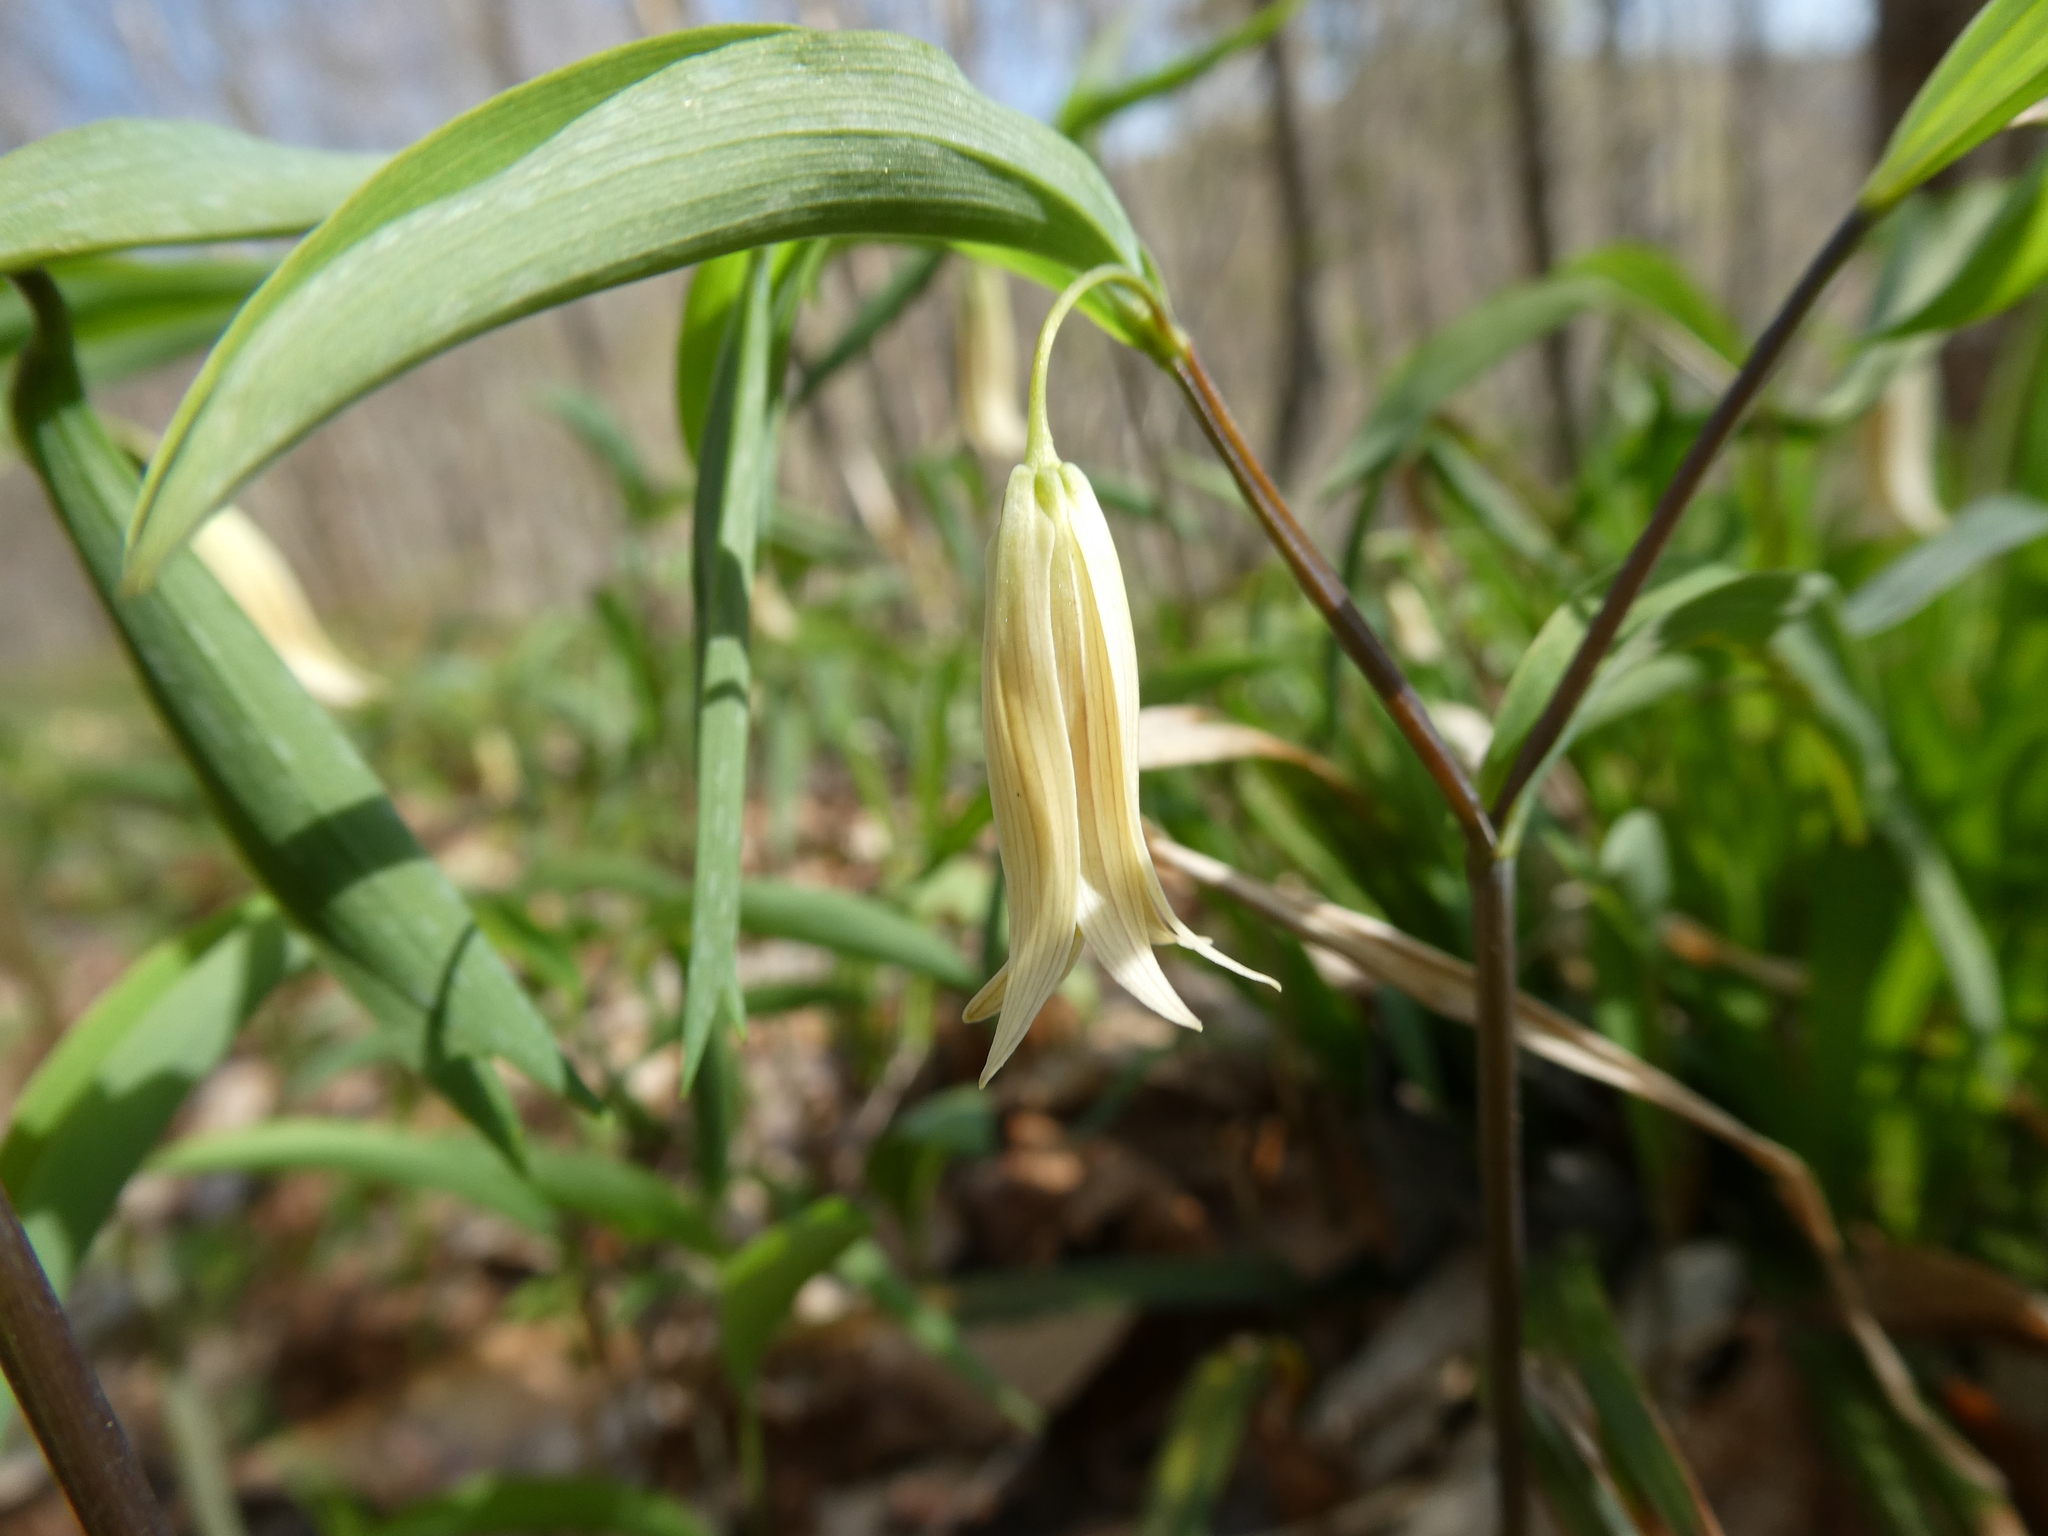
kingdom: Plantae
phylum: Tracheophyta
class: Liliopsida
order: Liliales
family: Colchicaceae
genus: Uvularia
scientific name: Uvularia sessilifolia
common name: Straw-lily
